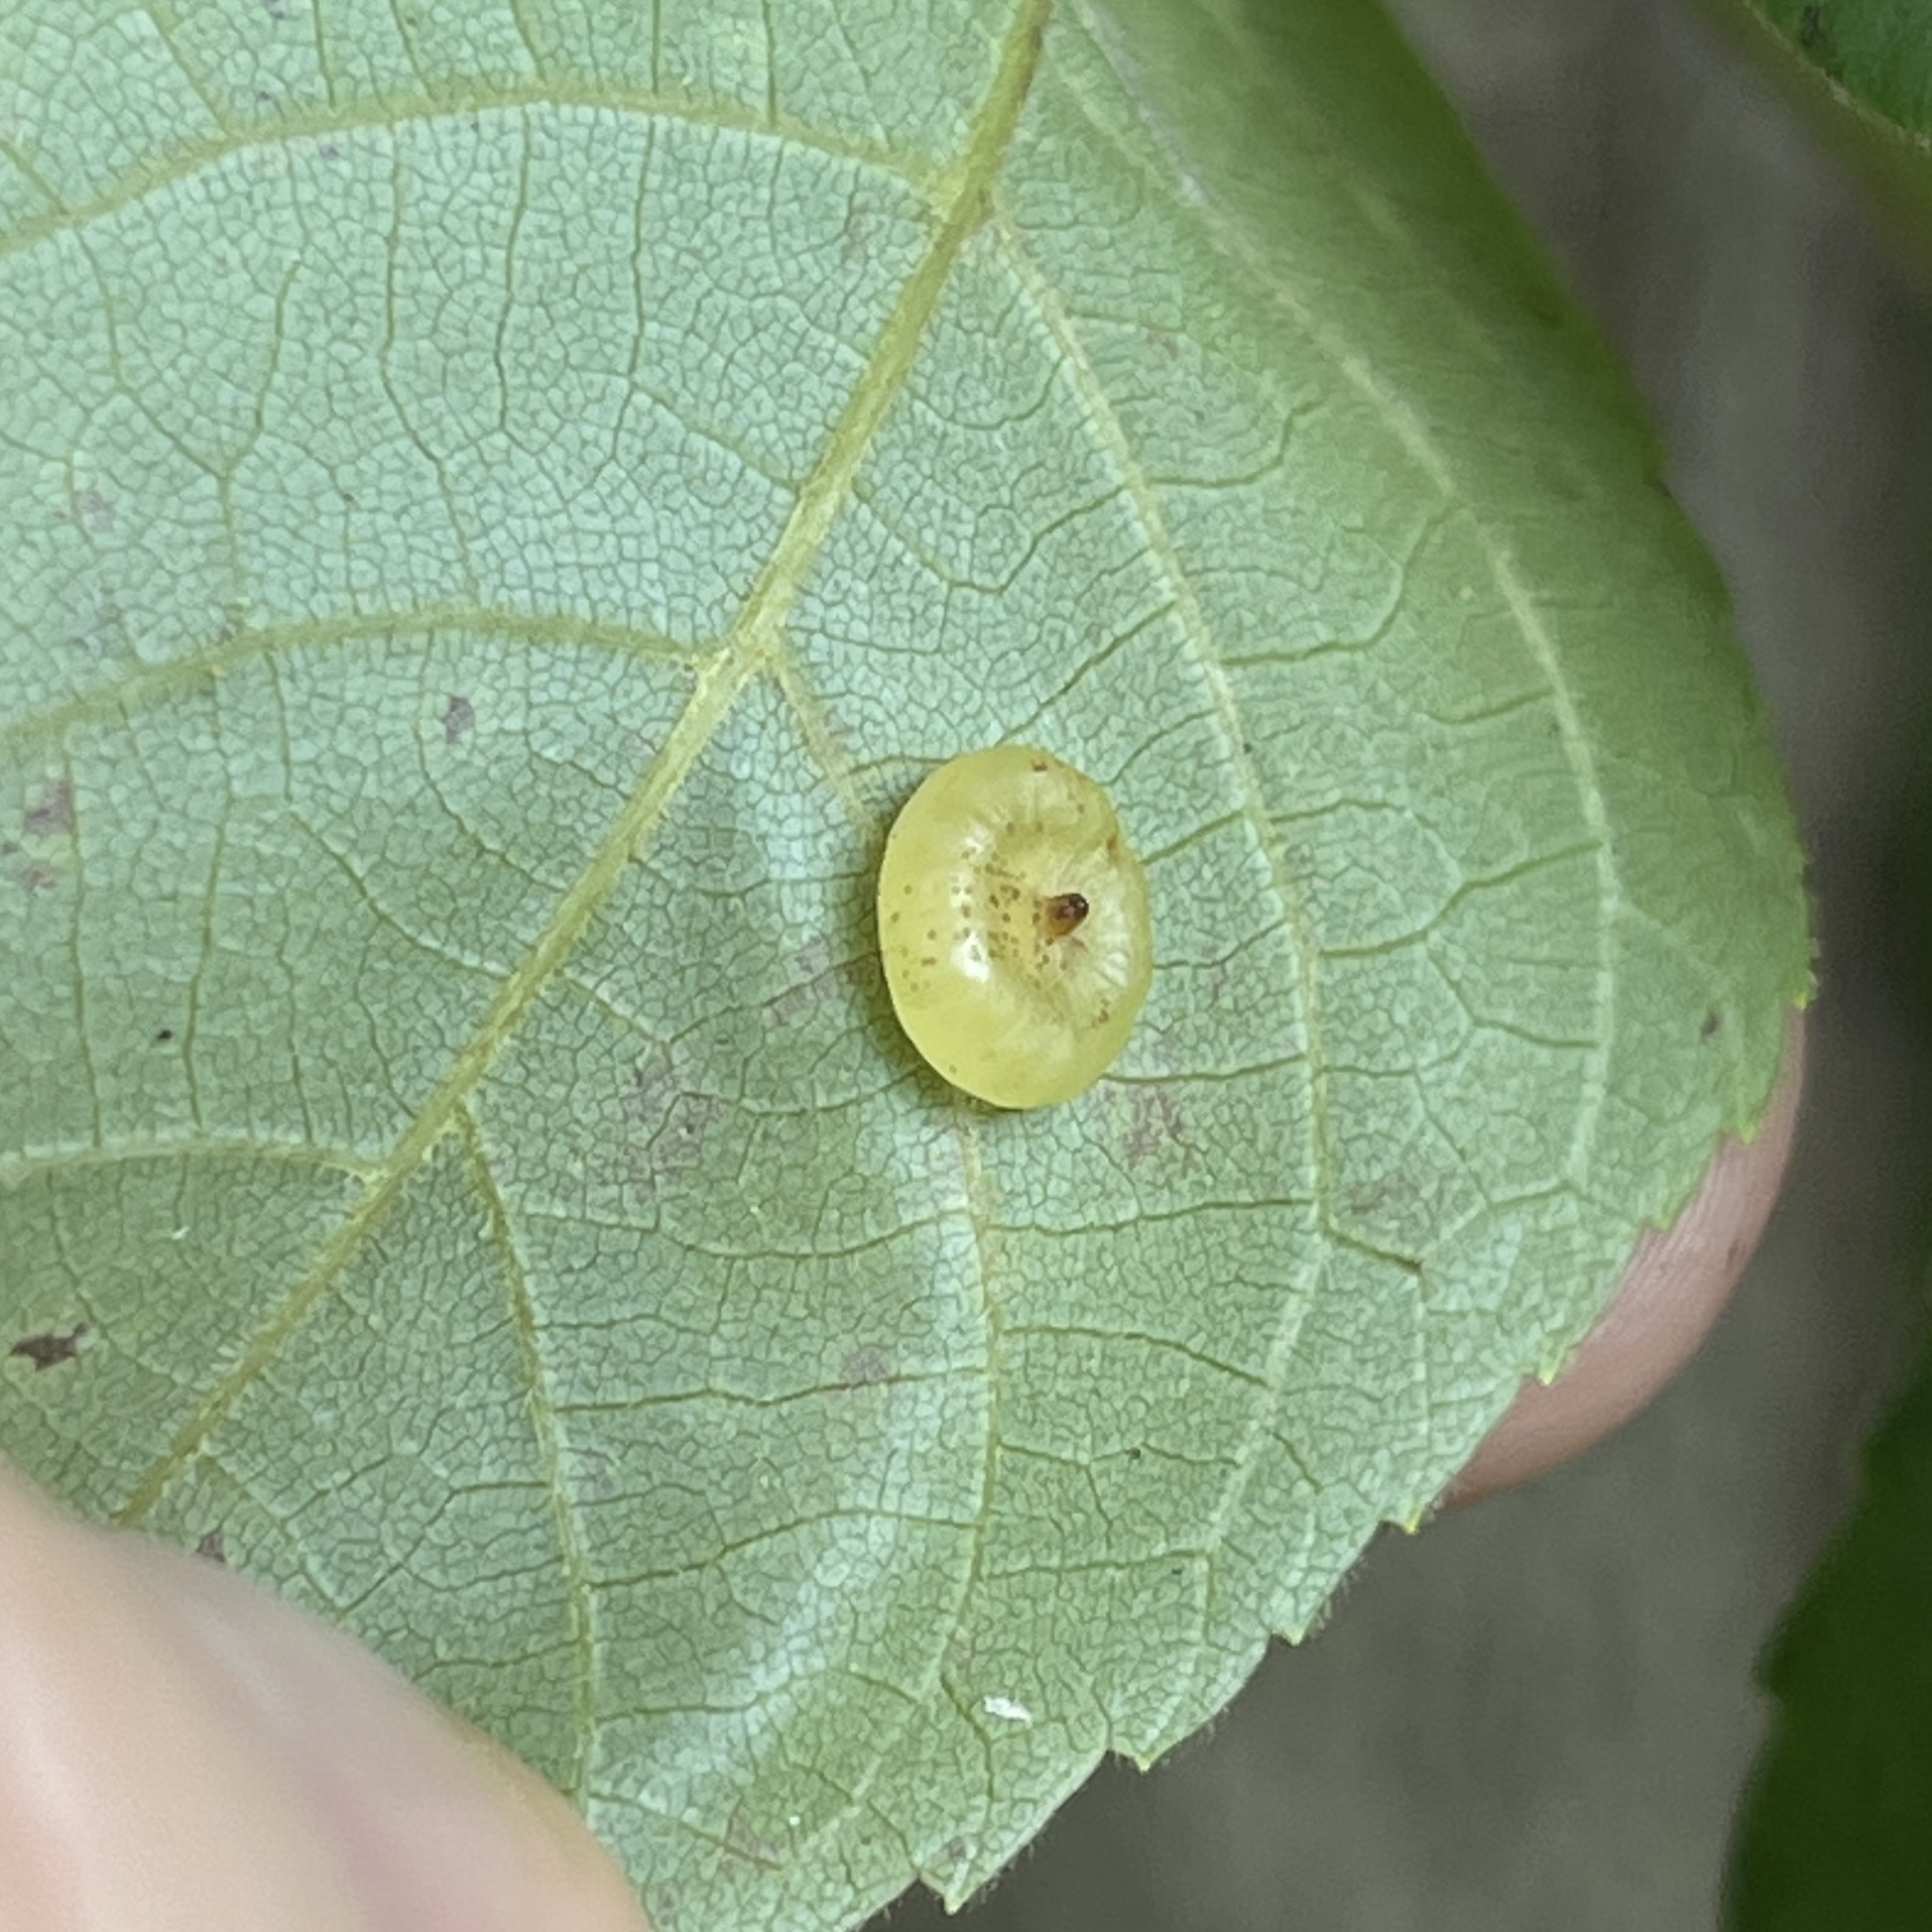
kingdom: Animalia
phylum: Arthropoda
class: Insecta
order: Diptera
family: Cecidomyiidae
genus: Caryomyia
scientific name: Caryomyia biretta
